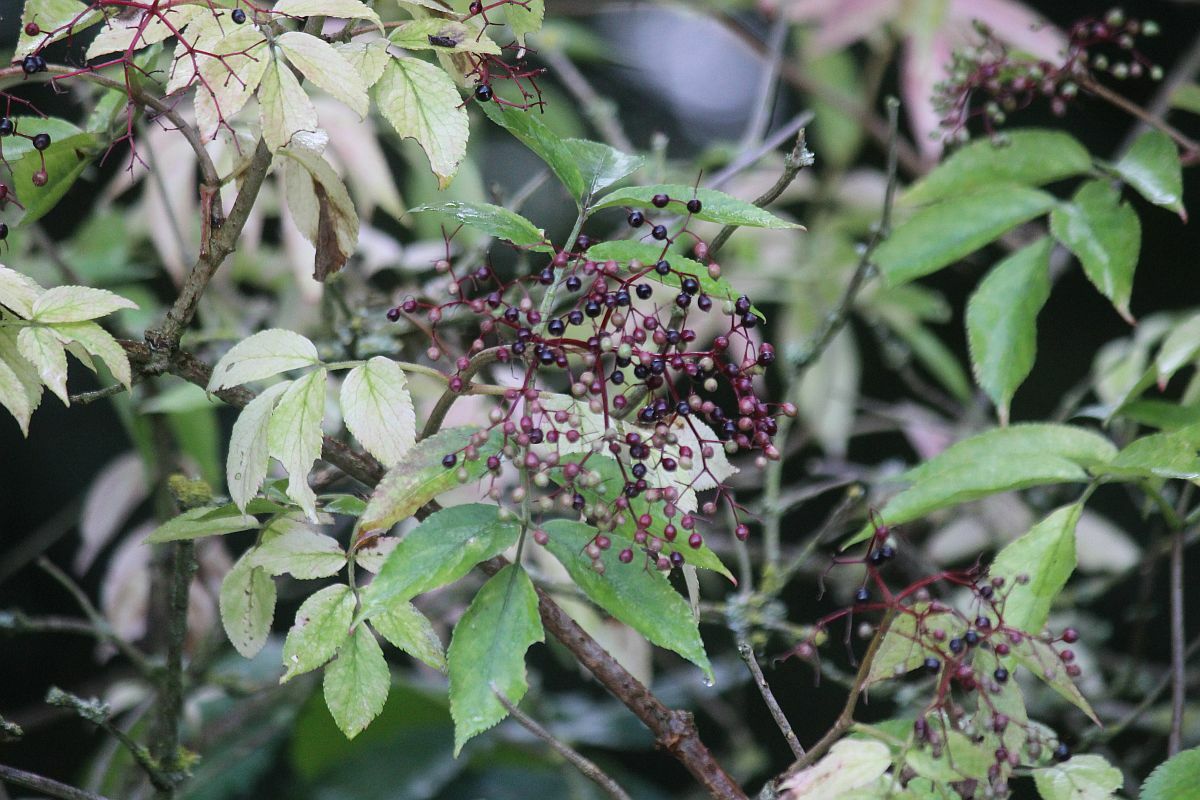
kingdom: Plantae
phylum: Tracheophyta
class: Magnoliopsida
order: Dipsacales
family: Viburnaceae
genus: Sambucus
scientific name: Sambucus nigra
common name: Elder
